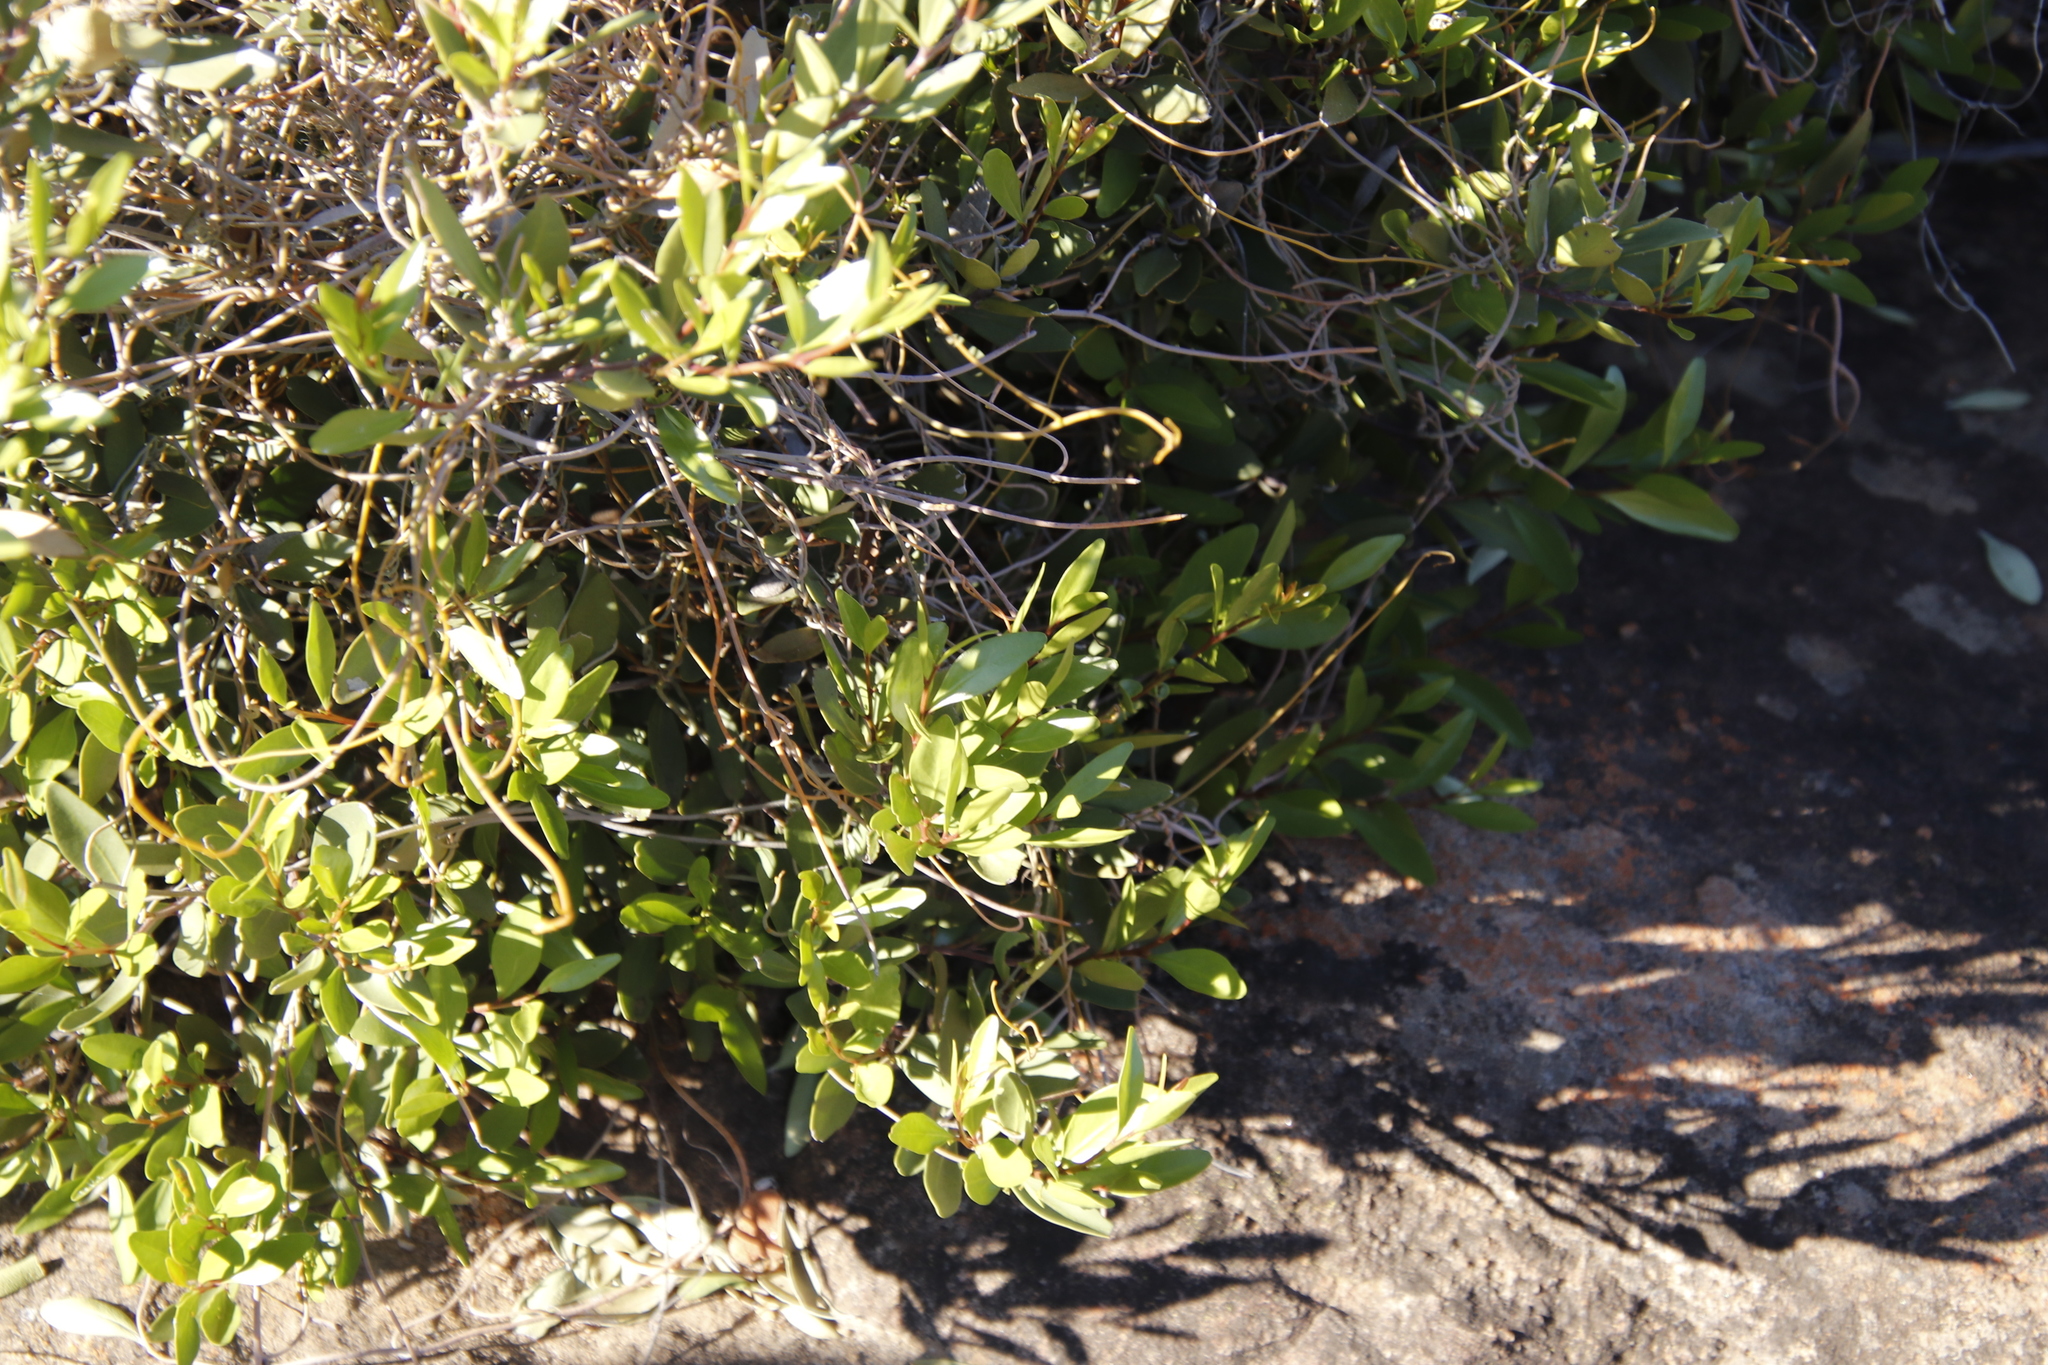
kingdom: Plantae
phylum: Tracheophyta
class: Magnoliopsida
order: Laurales
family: Lauraceae
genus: Cassytha
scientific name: Cassytha ciliolata
